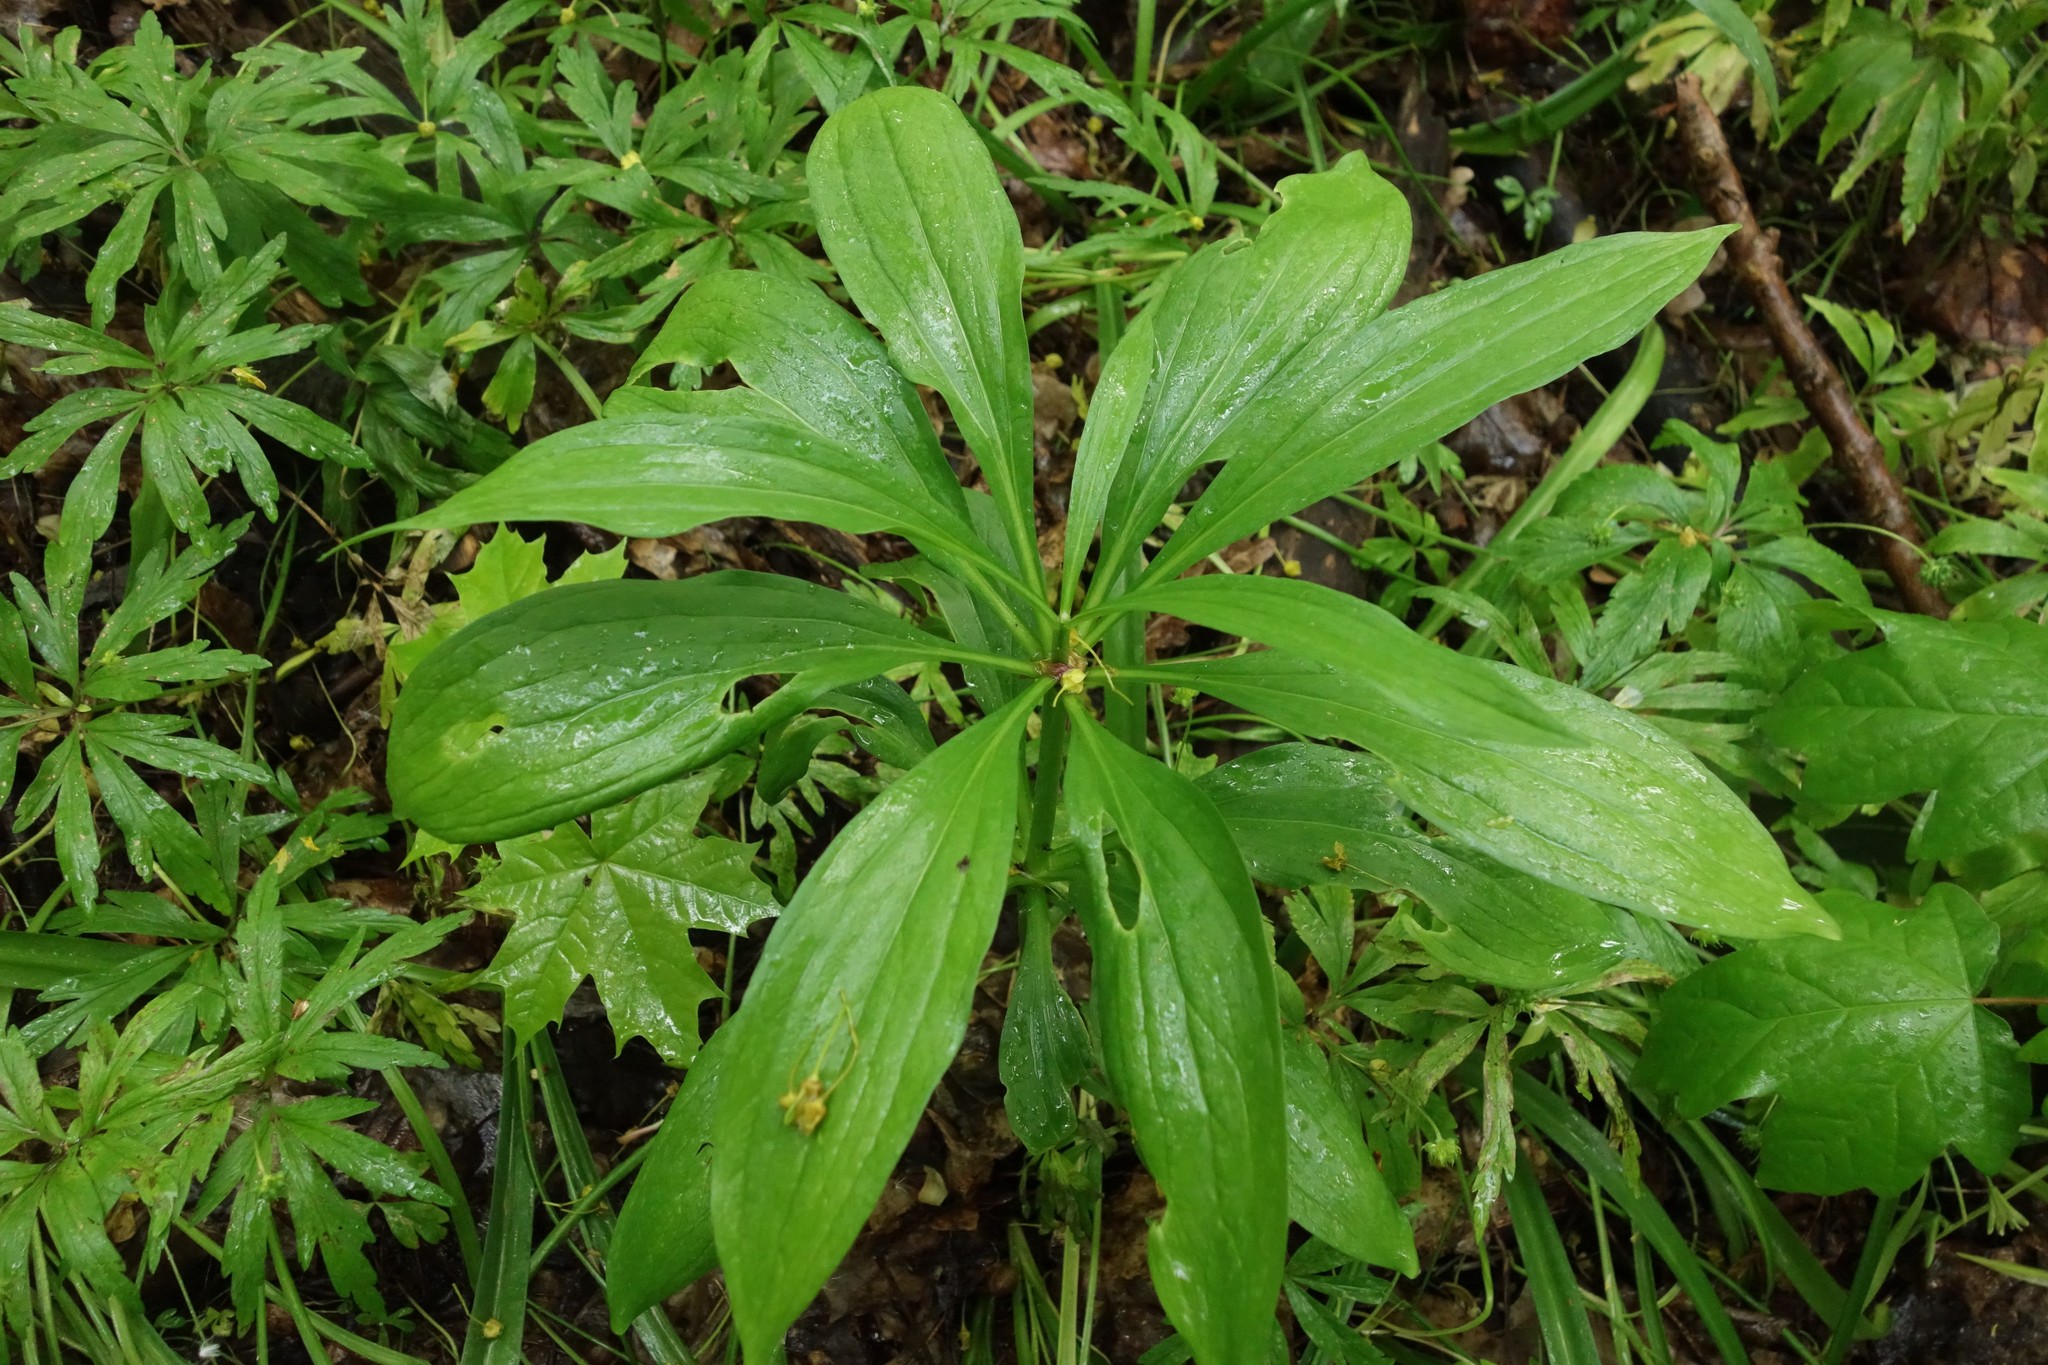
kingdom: Plantae
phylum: Tracheophyta
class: Liliopsida
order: Liliales
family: Liliaceae
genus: Lilium
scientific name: Lilium martagon
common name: Martagon lily
